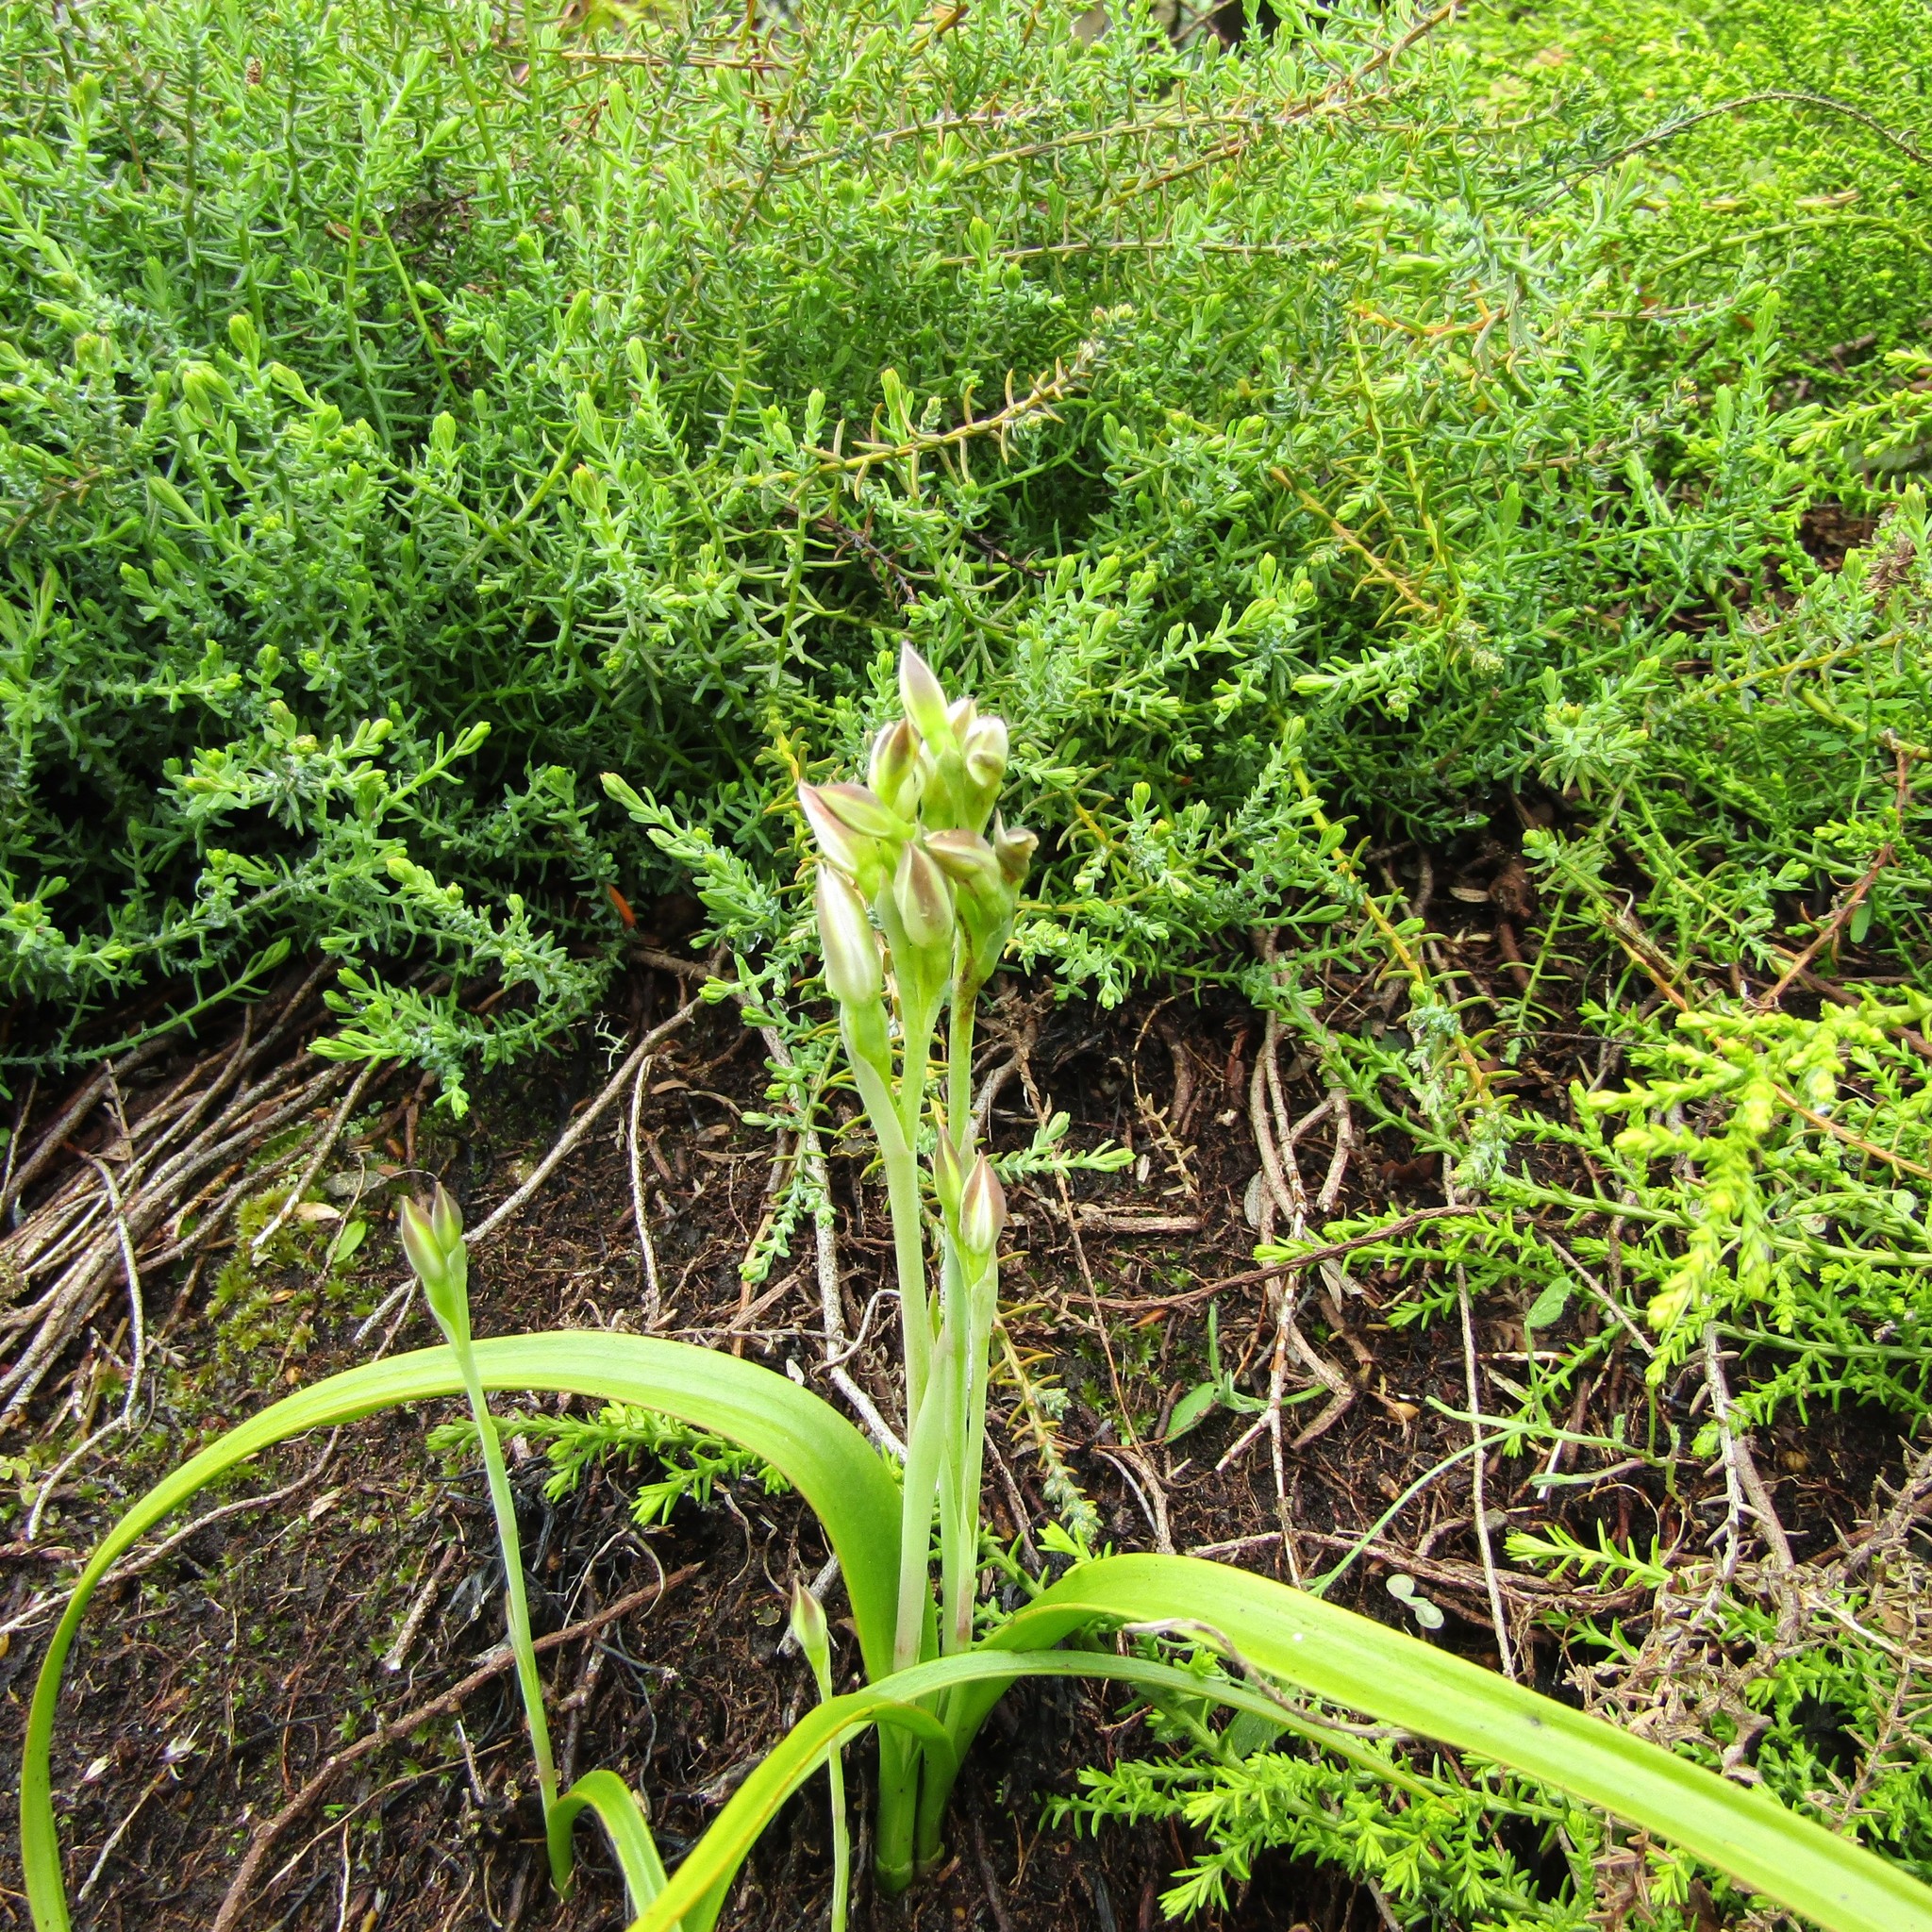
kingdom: Plantae
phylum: Tracheophyta
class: Liliopsida
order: Asparagales
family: Orchidaceae
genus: Thelymitra
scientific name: Thelymitra longifolia
